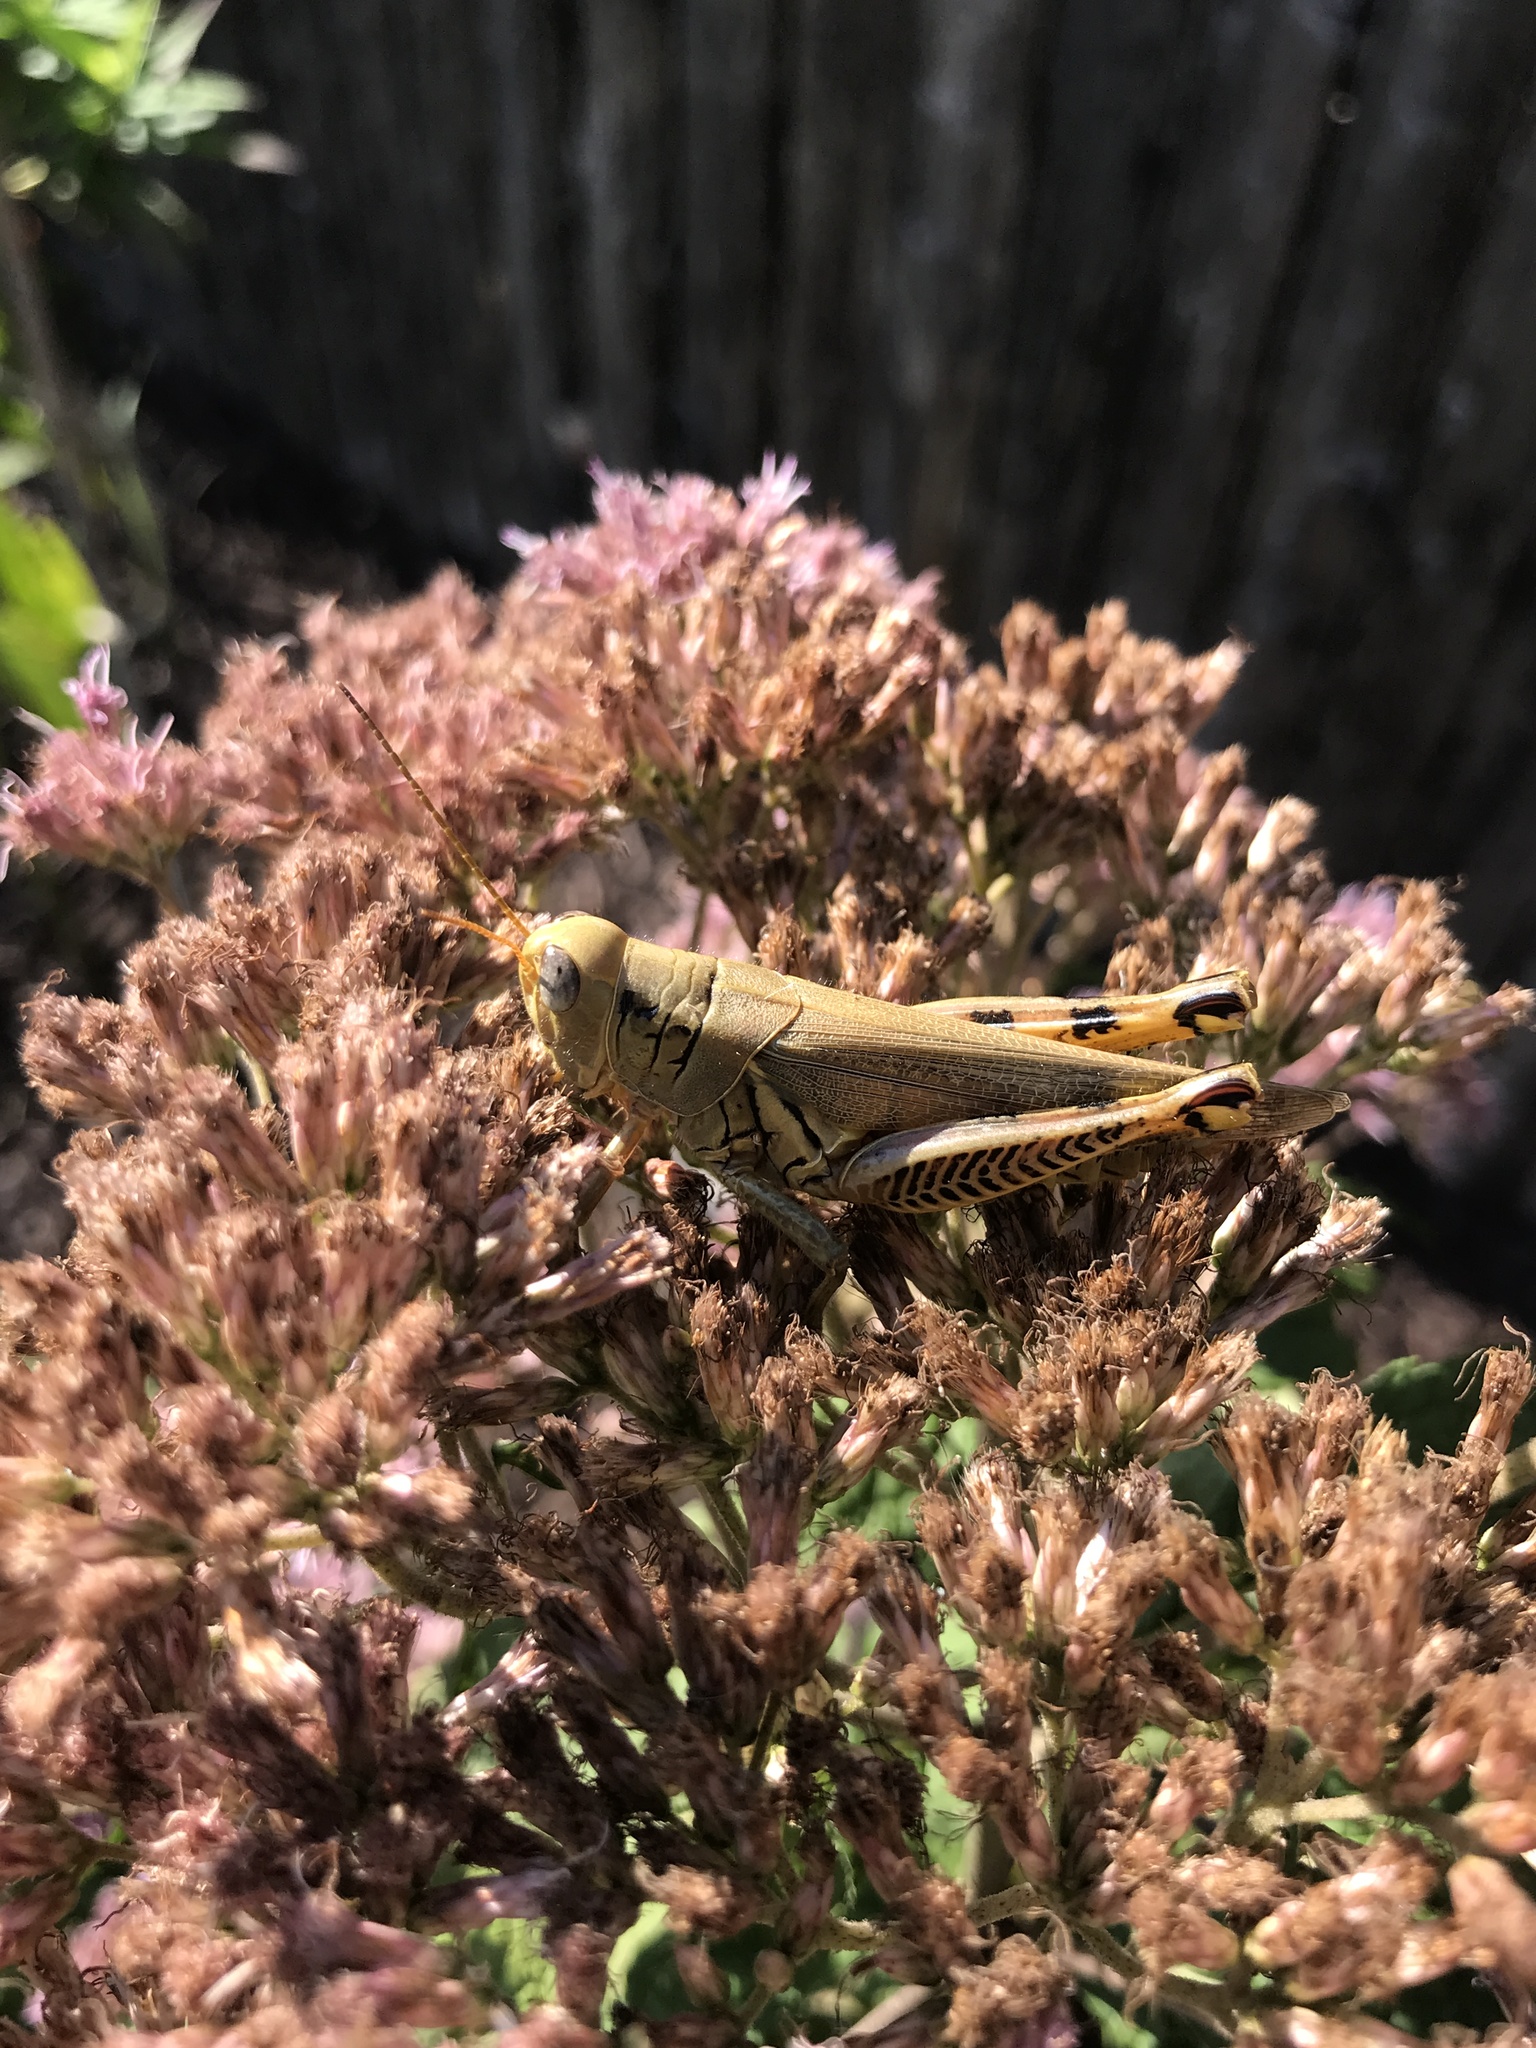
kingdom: Animalia
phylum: Arthropoda
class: Insecta
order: Orthoptera
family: Acrididae
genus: Melanoplus
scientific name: Melanoplus differentialis
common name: Differential grasshopper
